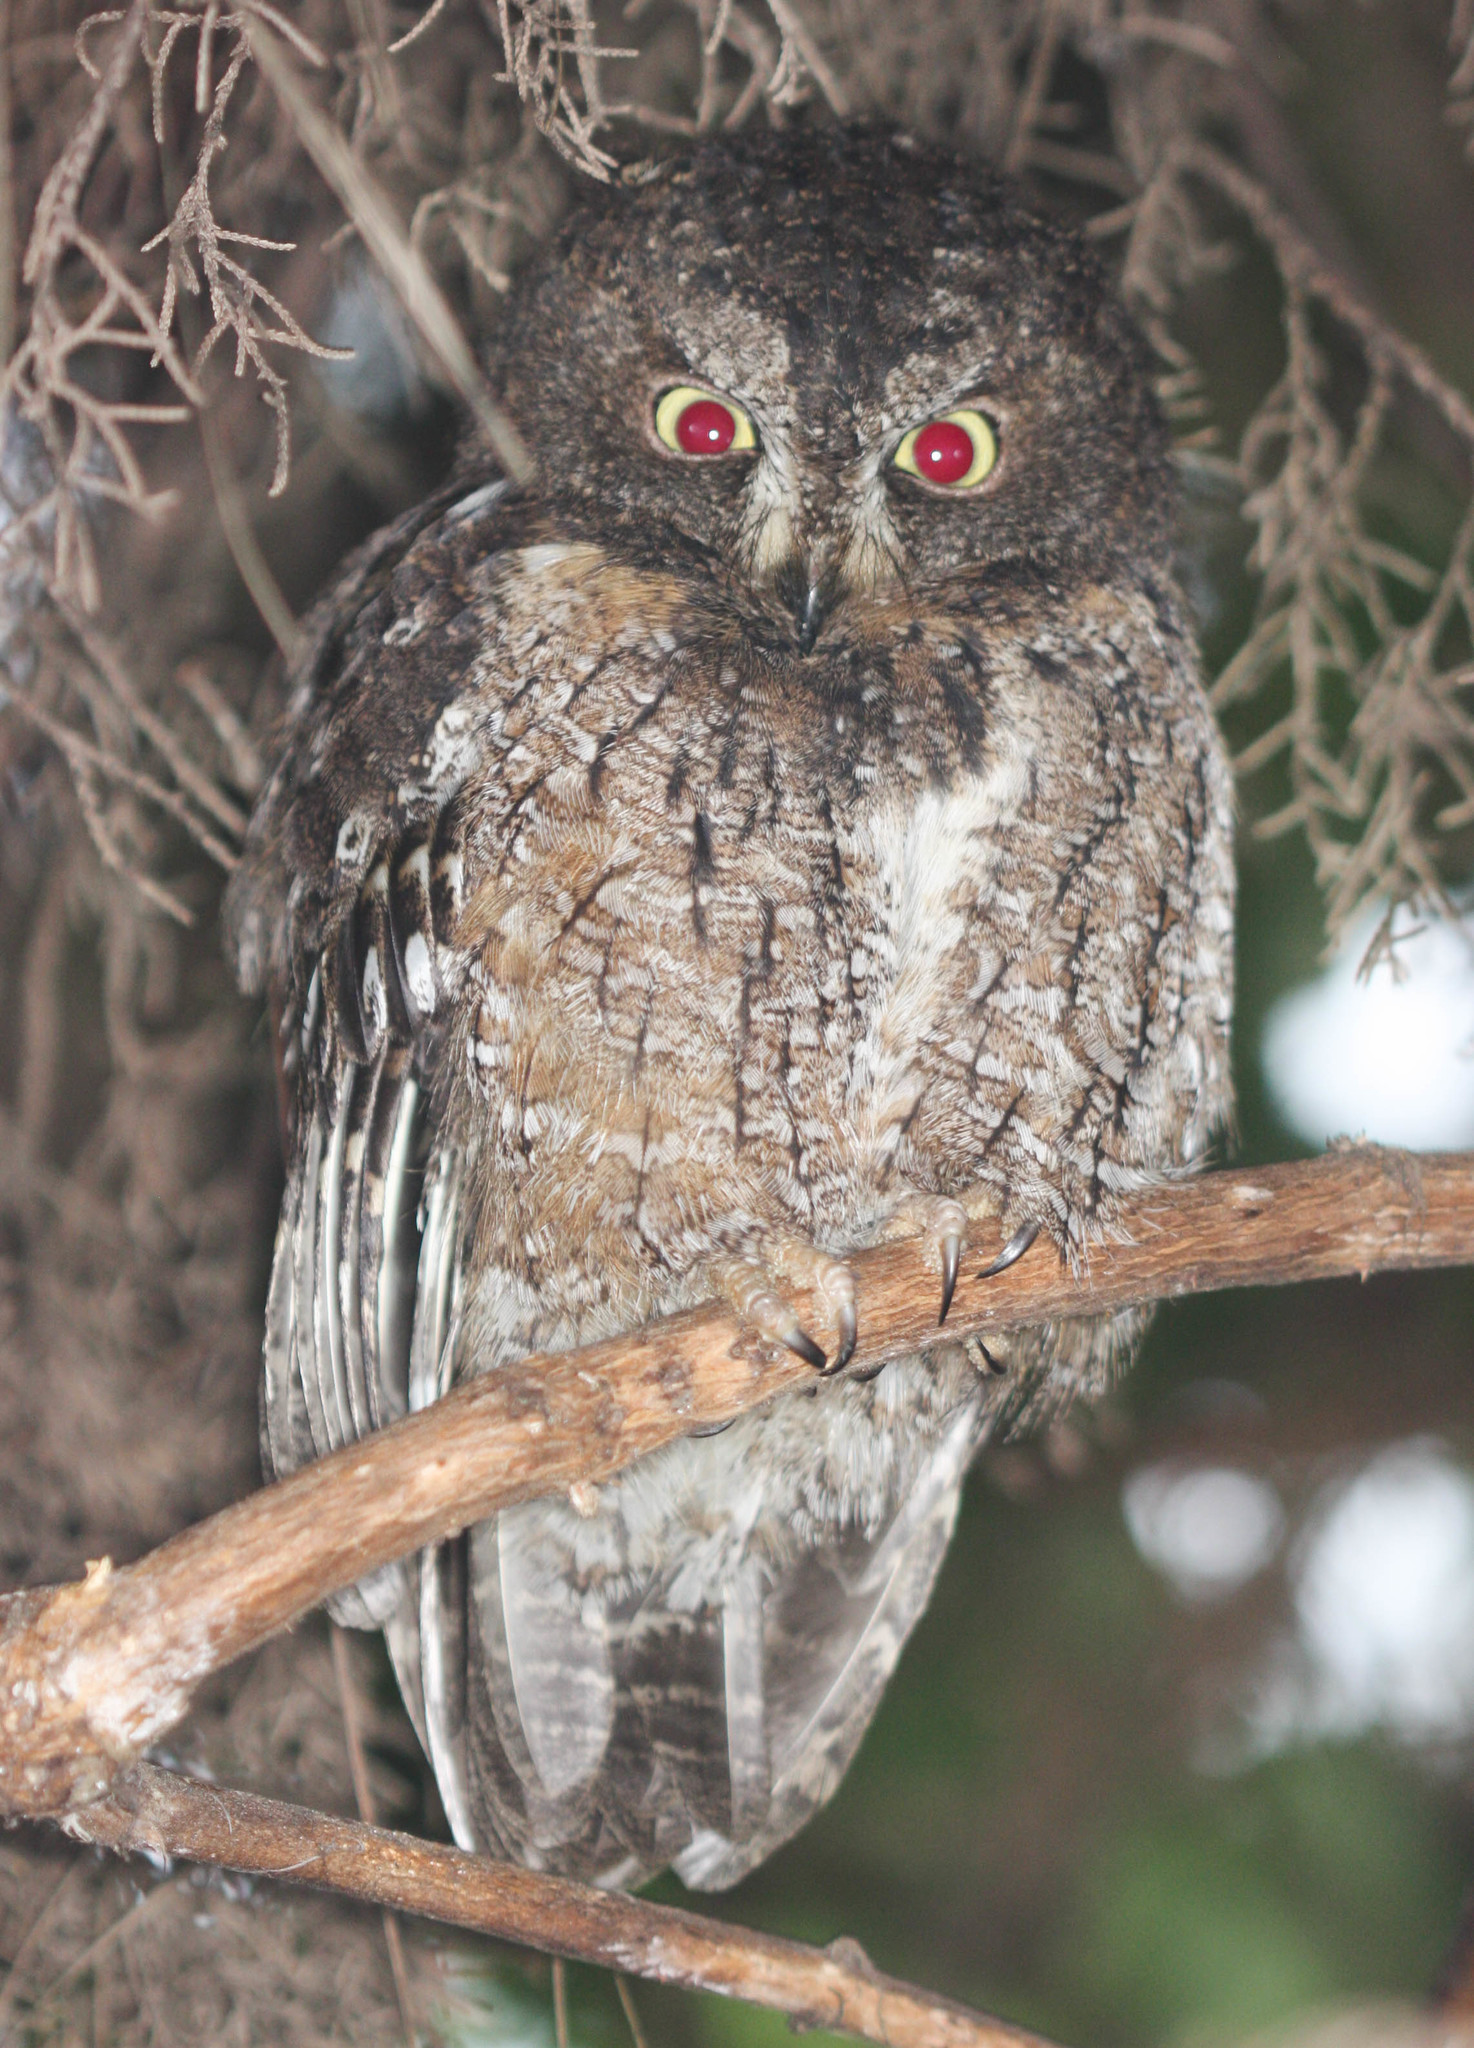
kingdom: Animalia
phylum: Chordata
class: Aves
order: Strigiformes
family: Strigidae
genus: Otus
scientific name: Otus rutilus
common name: Rainforest scops owl
